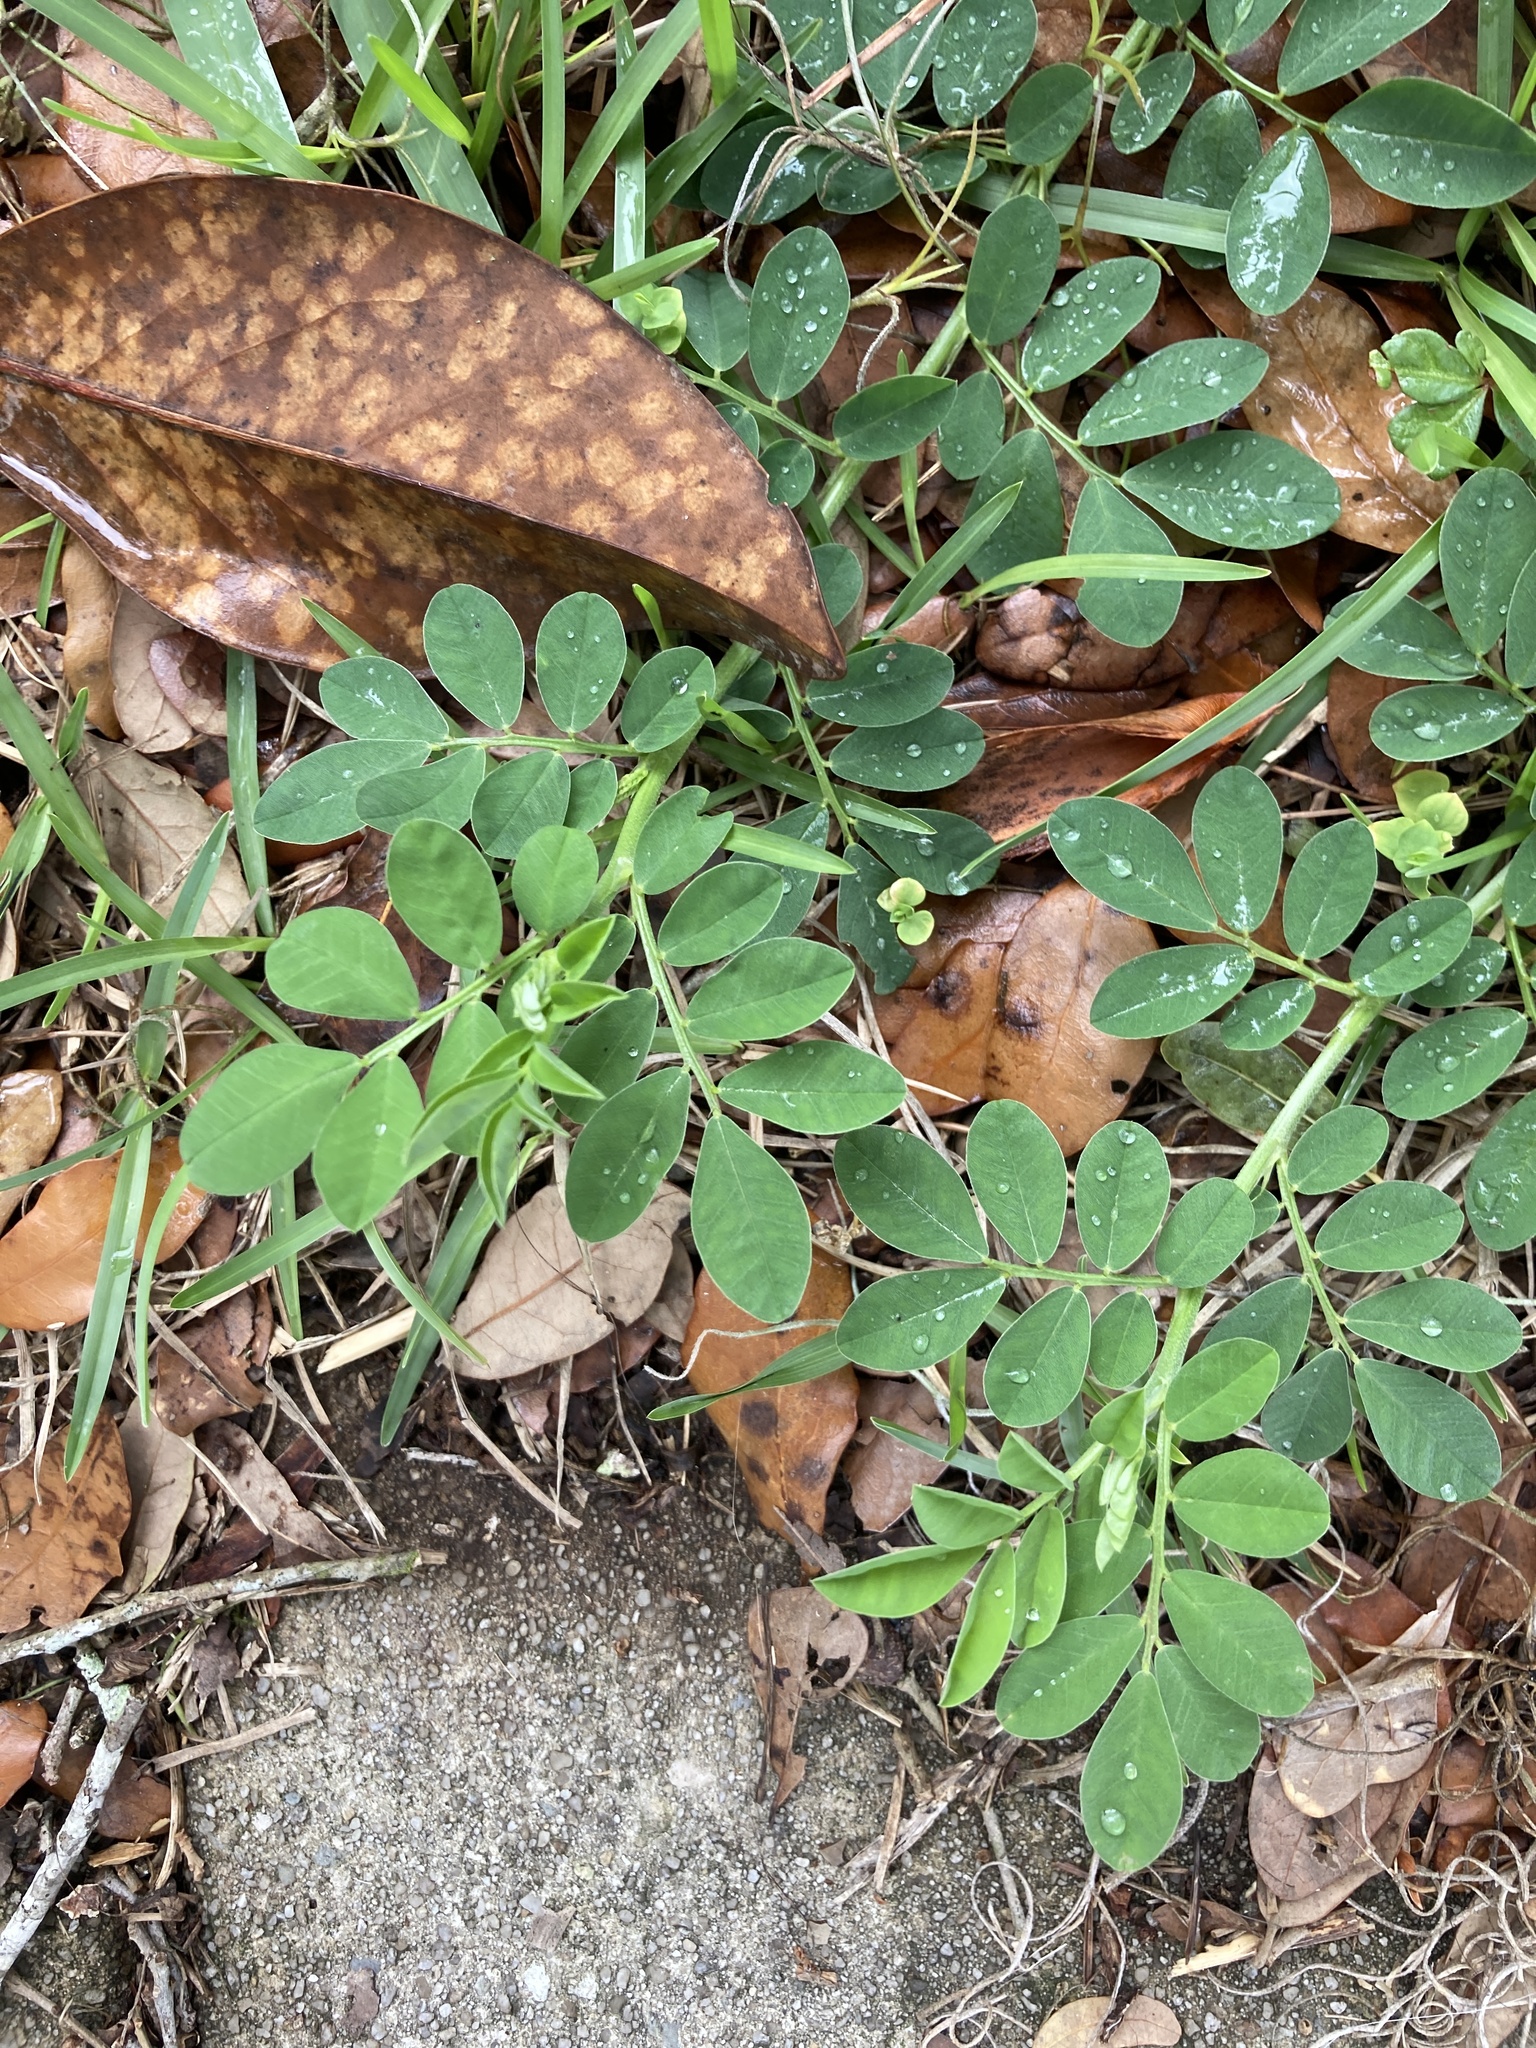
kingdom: Plantae
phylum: Tracheophyta
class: Magnoliopsida
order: Fabales
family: Fabaceae
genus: Indigofera
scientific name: Indigofera spicata
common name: Creeping indigo
